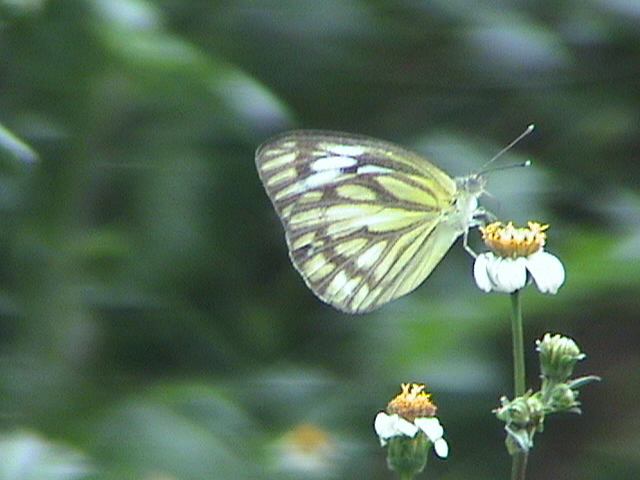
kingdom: Animalia
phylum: Arthropoda
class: Insecta
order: Lepidoptera
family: Pieridae
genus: Cepora
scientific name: Cepora nerissa
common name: Common gull
